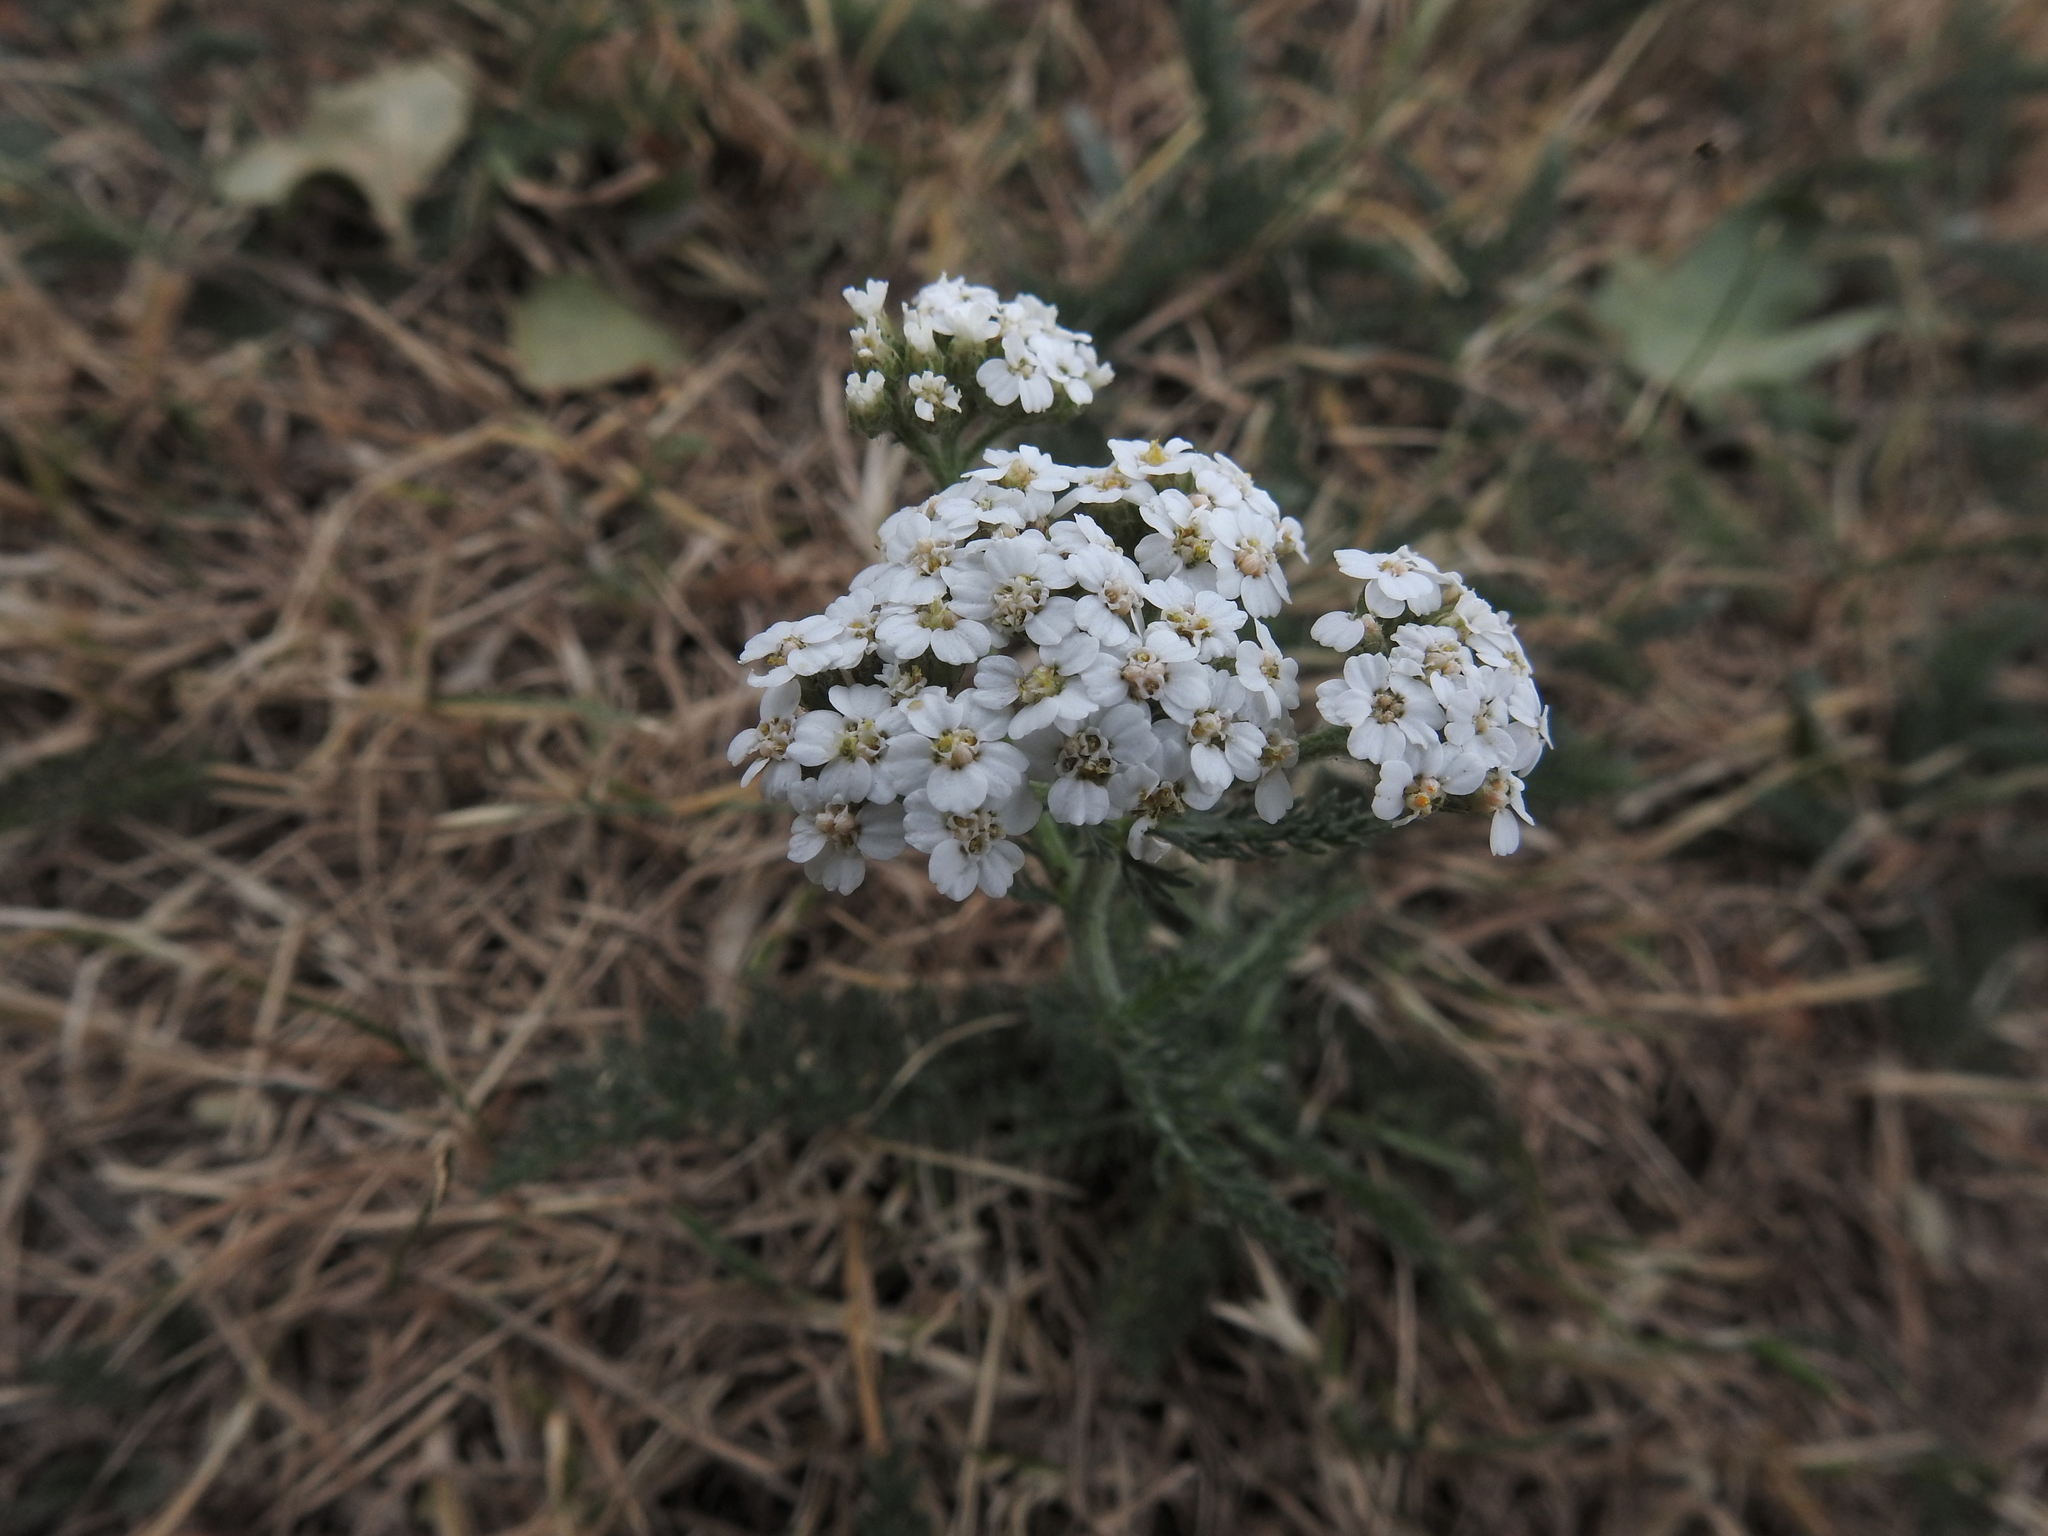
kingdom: Plantae
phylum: Tracheophyta
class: Magnoliopsida
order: Asterales
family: Asteraceae
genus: Achillea
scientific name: Achillea millefolium
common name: Yarrow
